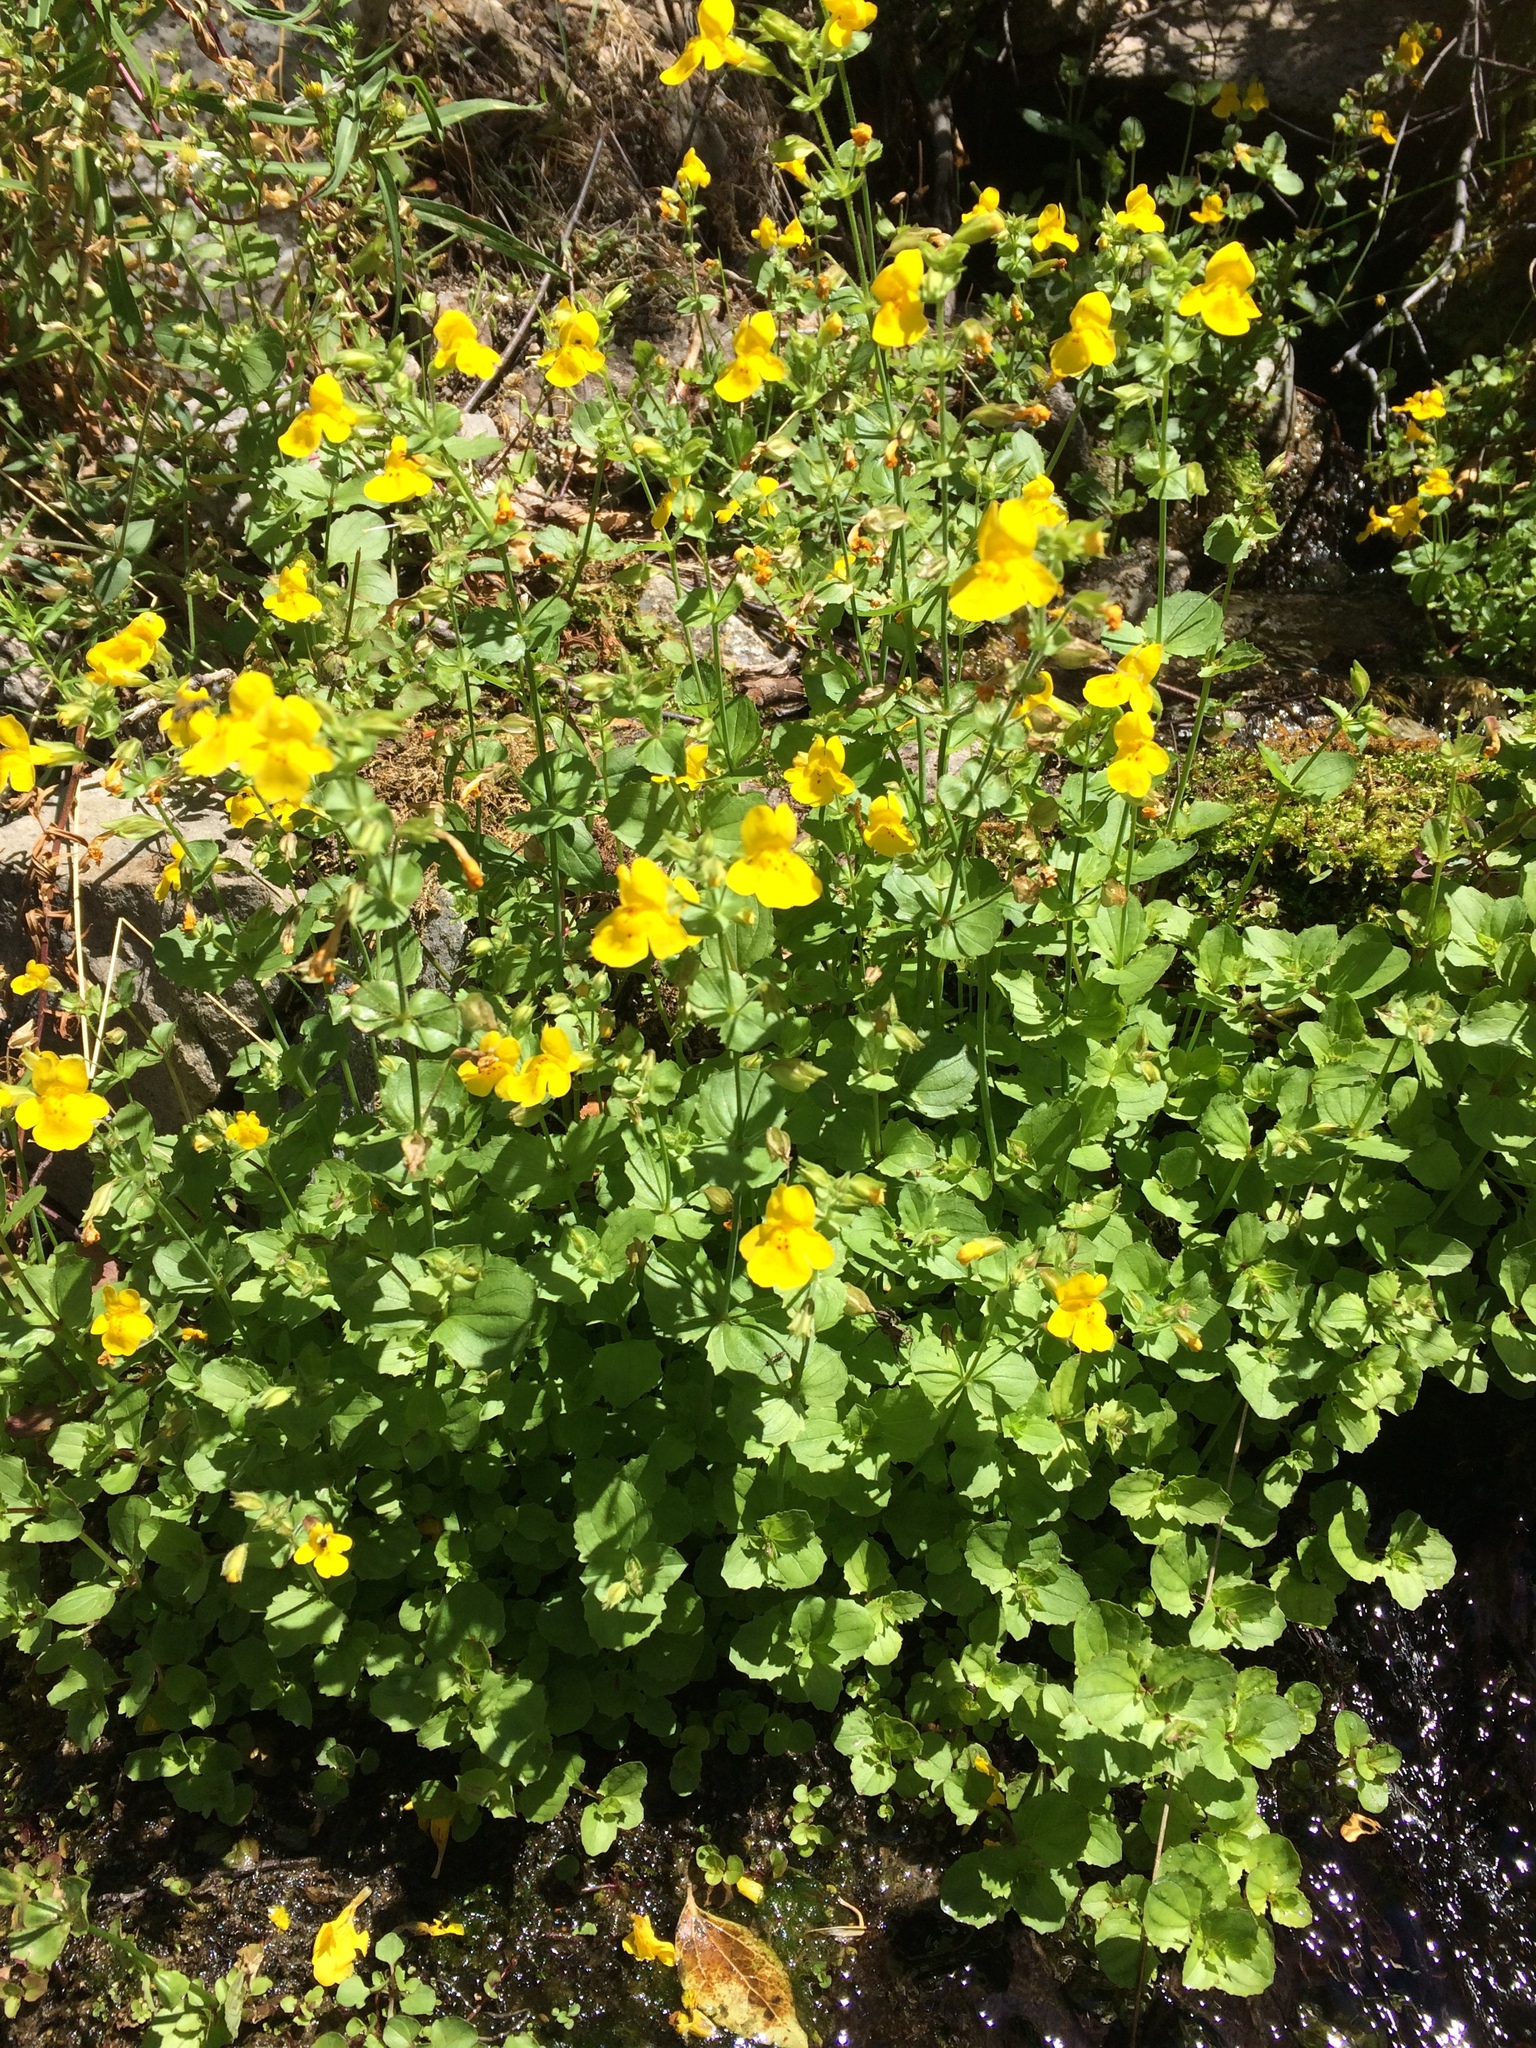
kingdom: Plantae
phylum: Tracheophyta
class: Magnoliopsida
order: Lamiales
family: Phrymaceae
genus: Erythranthe
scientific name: Erythranthe guttata
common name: Monkeyflower
